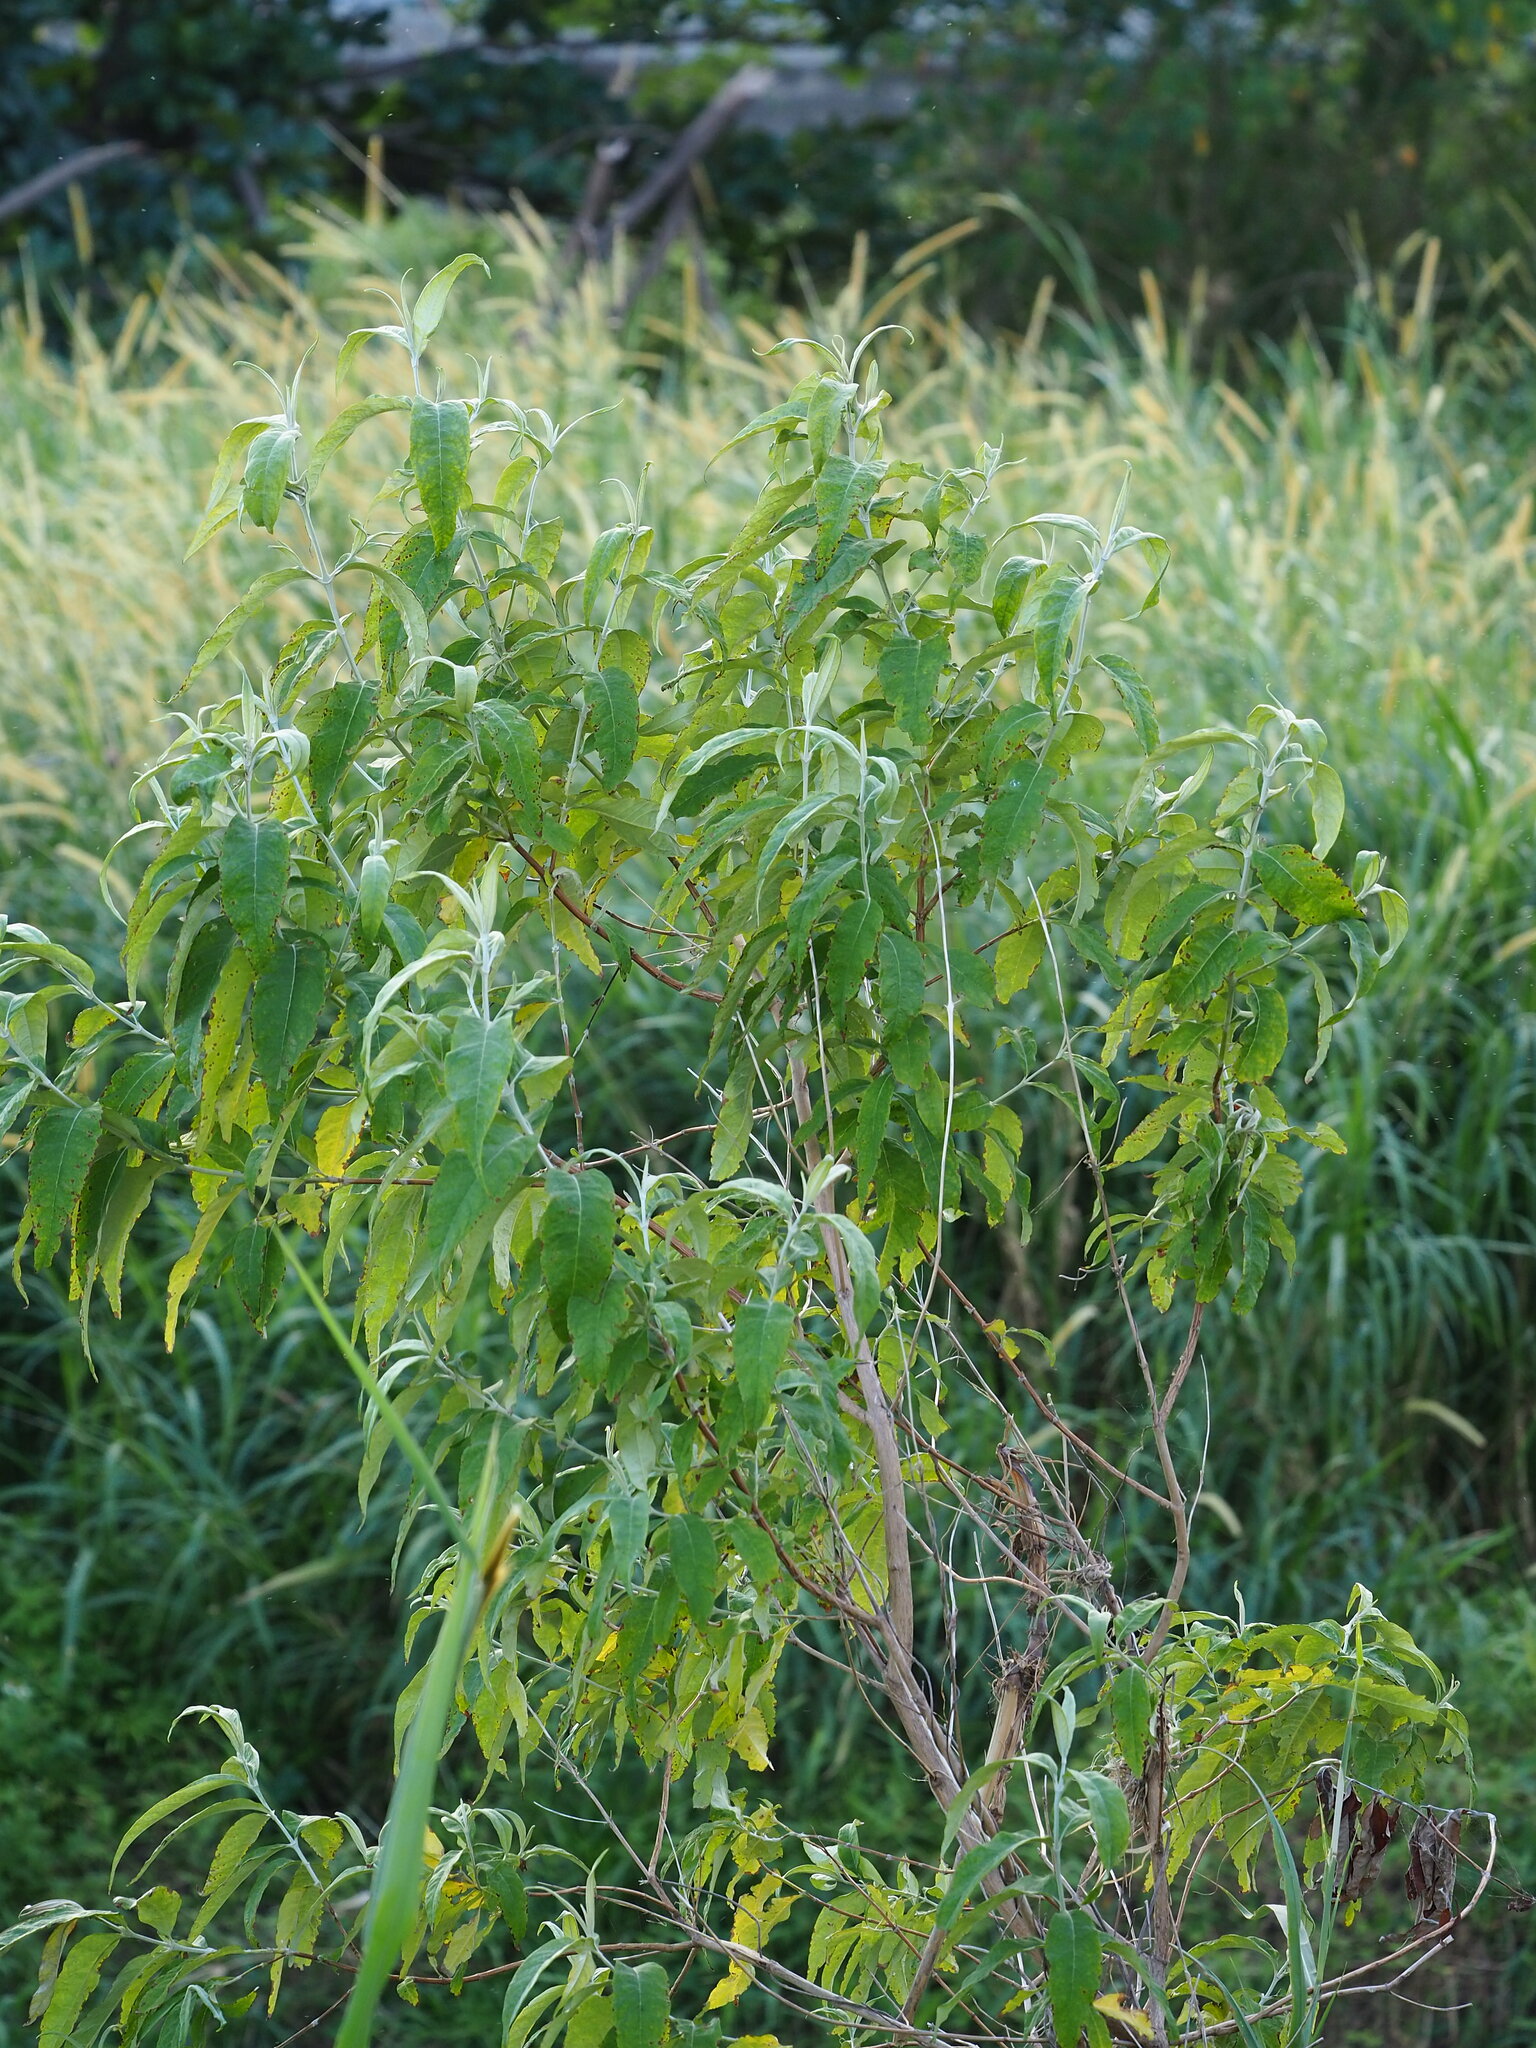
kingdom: Plantae
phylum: Tracheophyta
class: Magnoliopsida
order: Lamiales
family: Scrophulariaceae
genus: Buddleja
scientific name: Buddleja asiatica
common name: Dog tail
